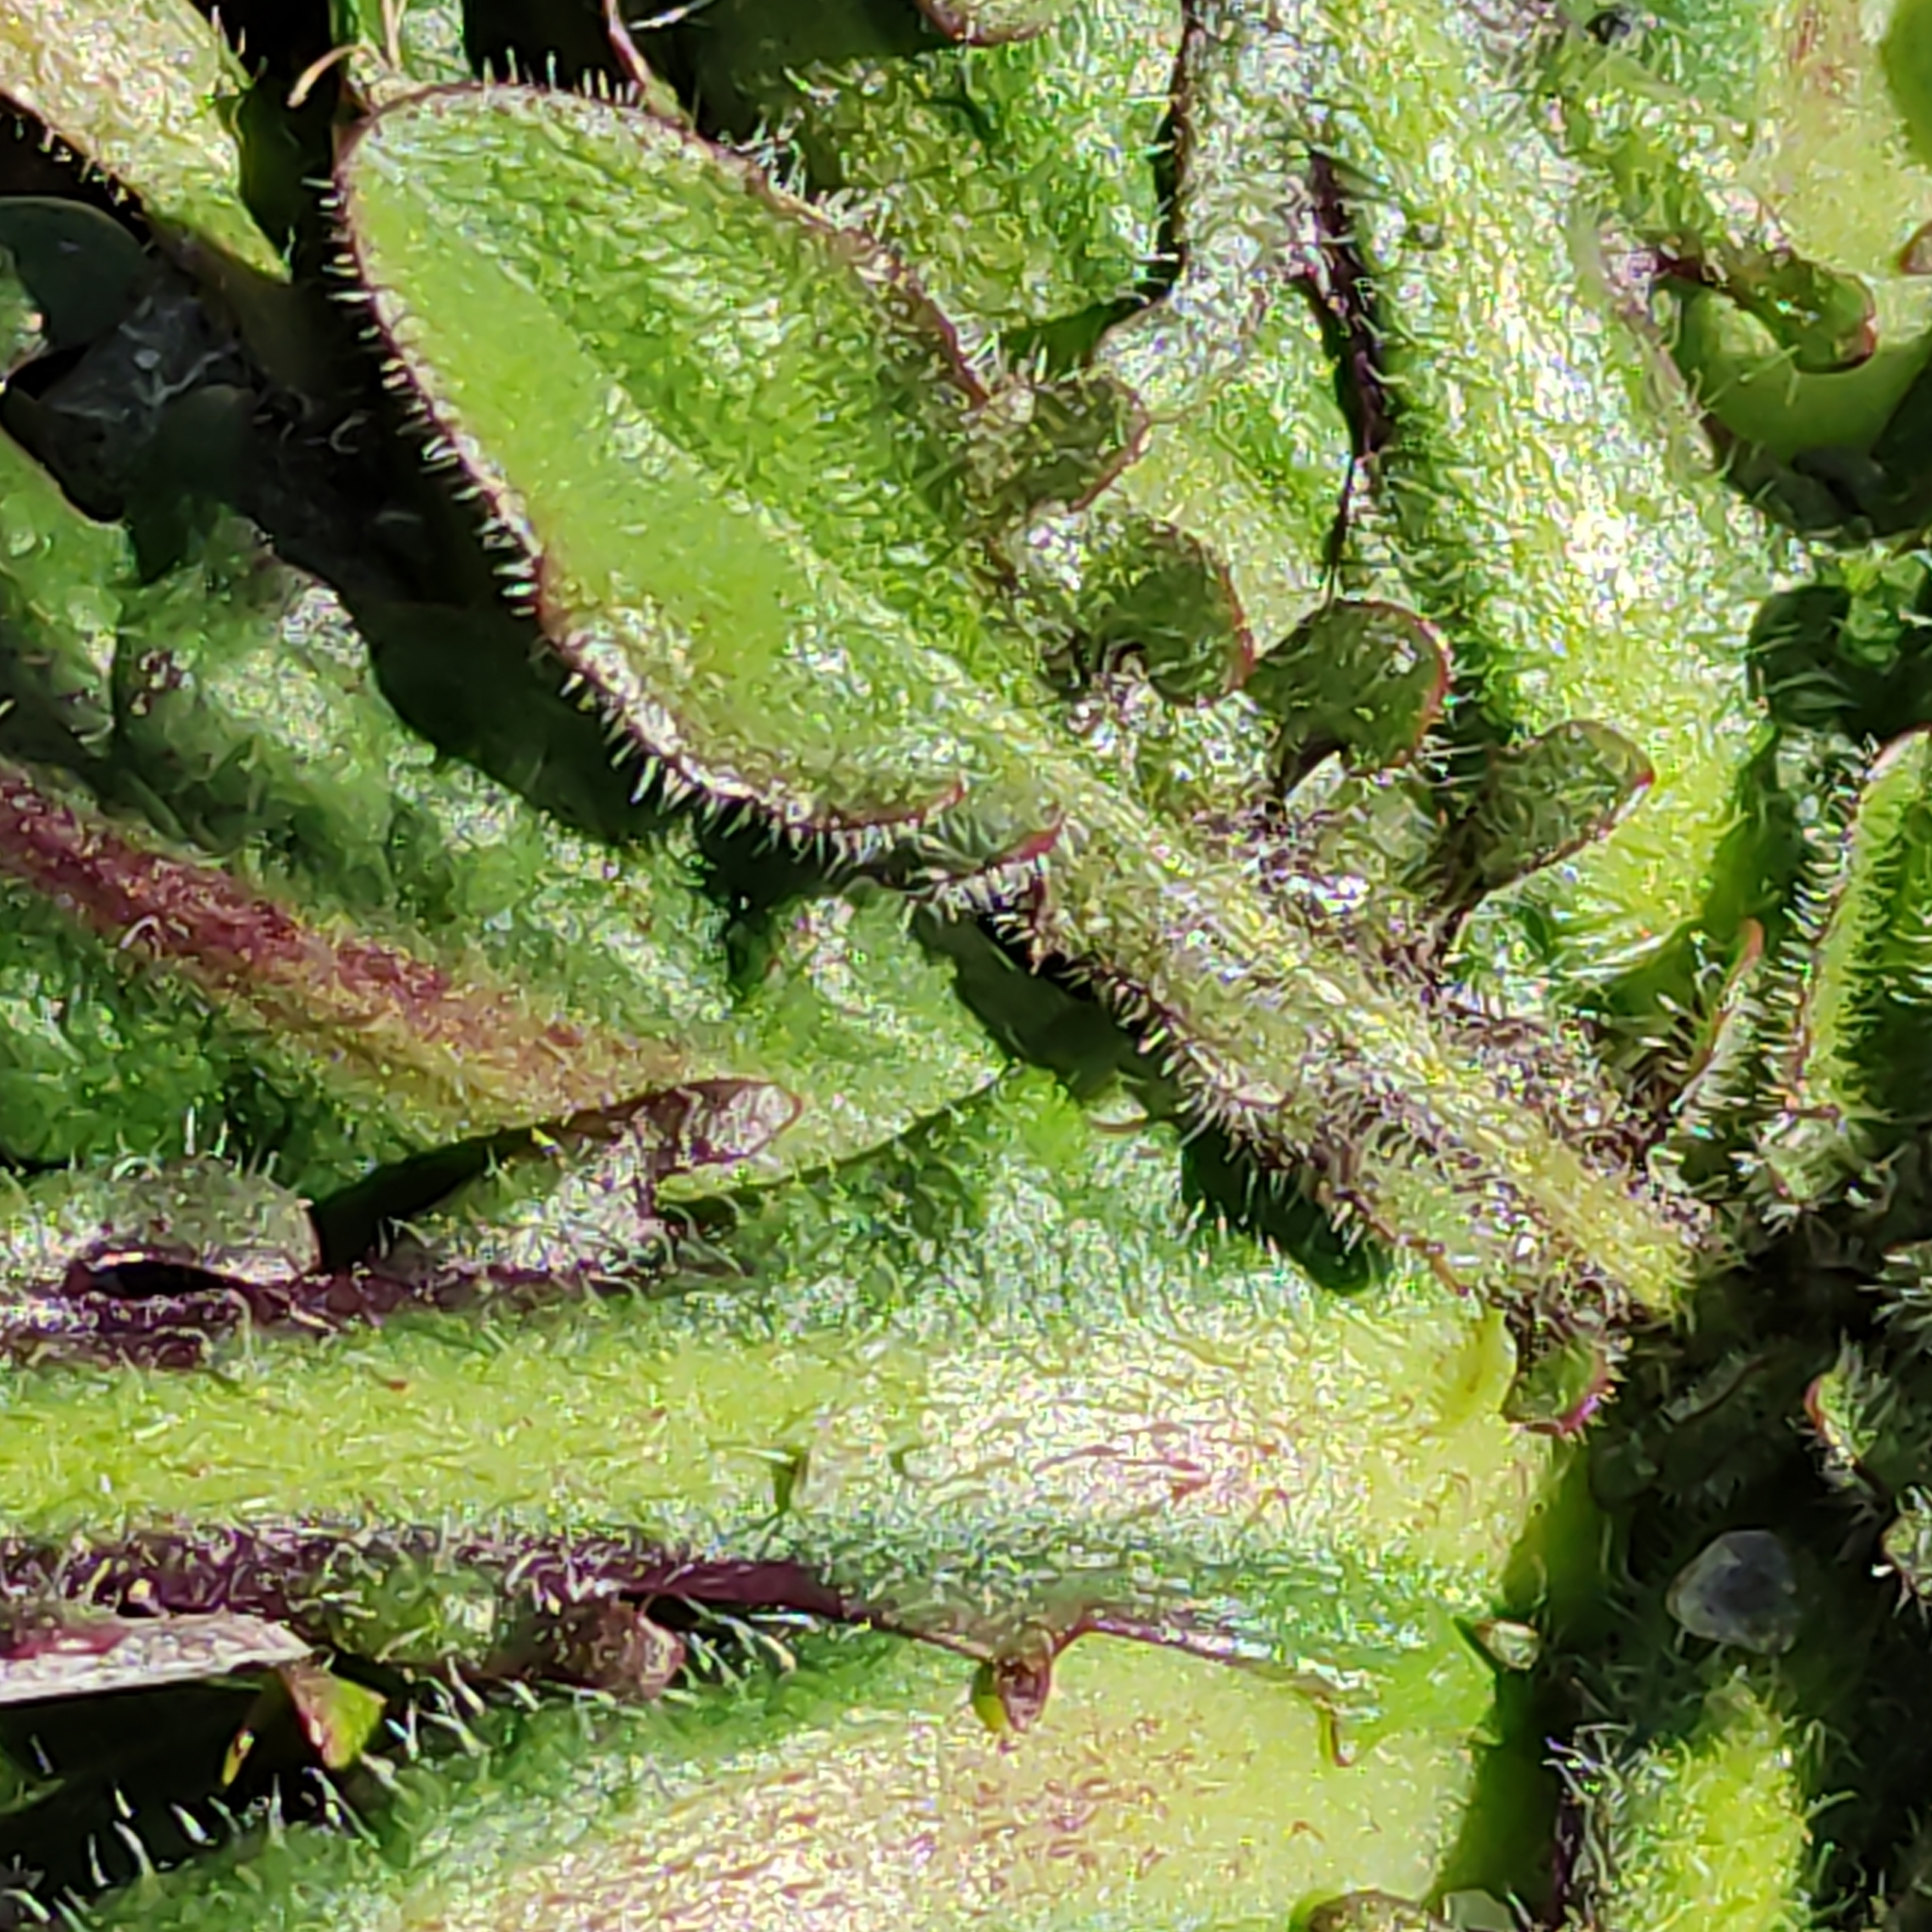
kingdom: Plantae
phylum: Tracheophyta
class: Magnoliopsida
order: Asterales
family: Asteraceae
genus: Hypochaeris
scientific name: Hypochaeris radicata
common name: Flatweed
